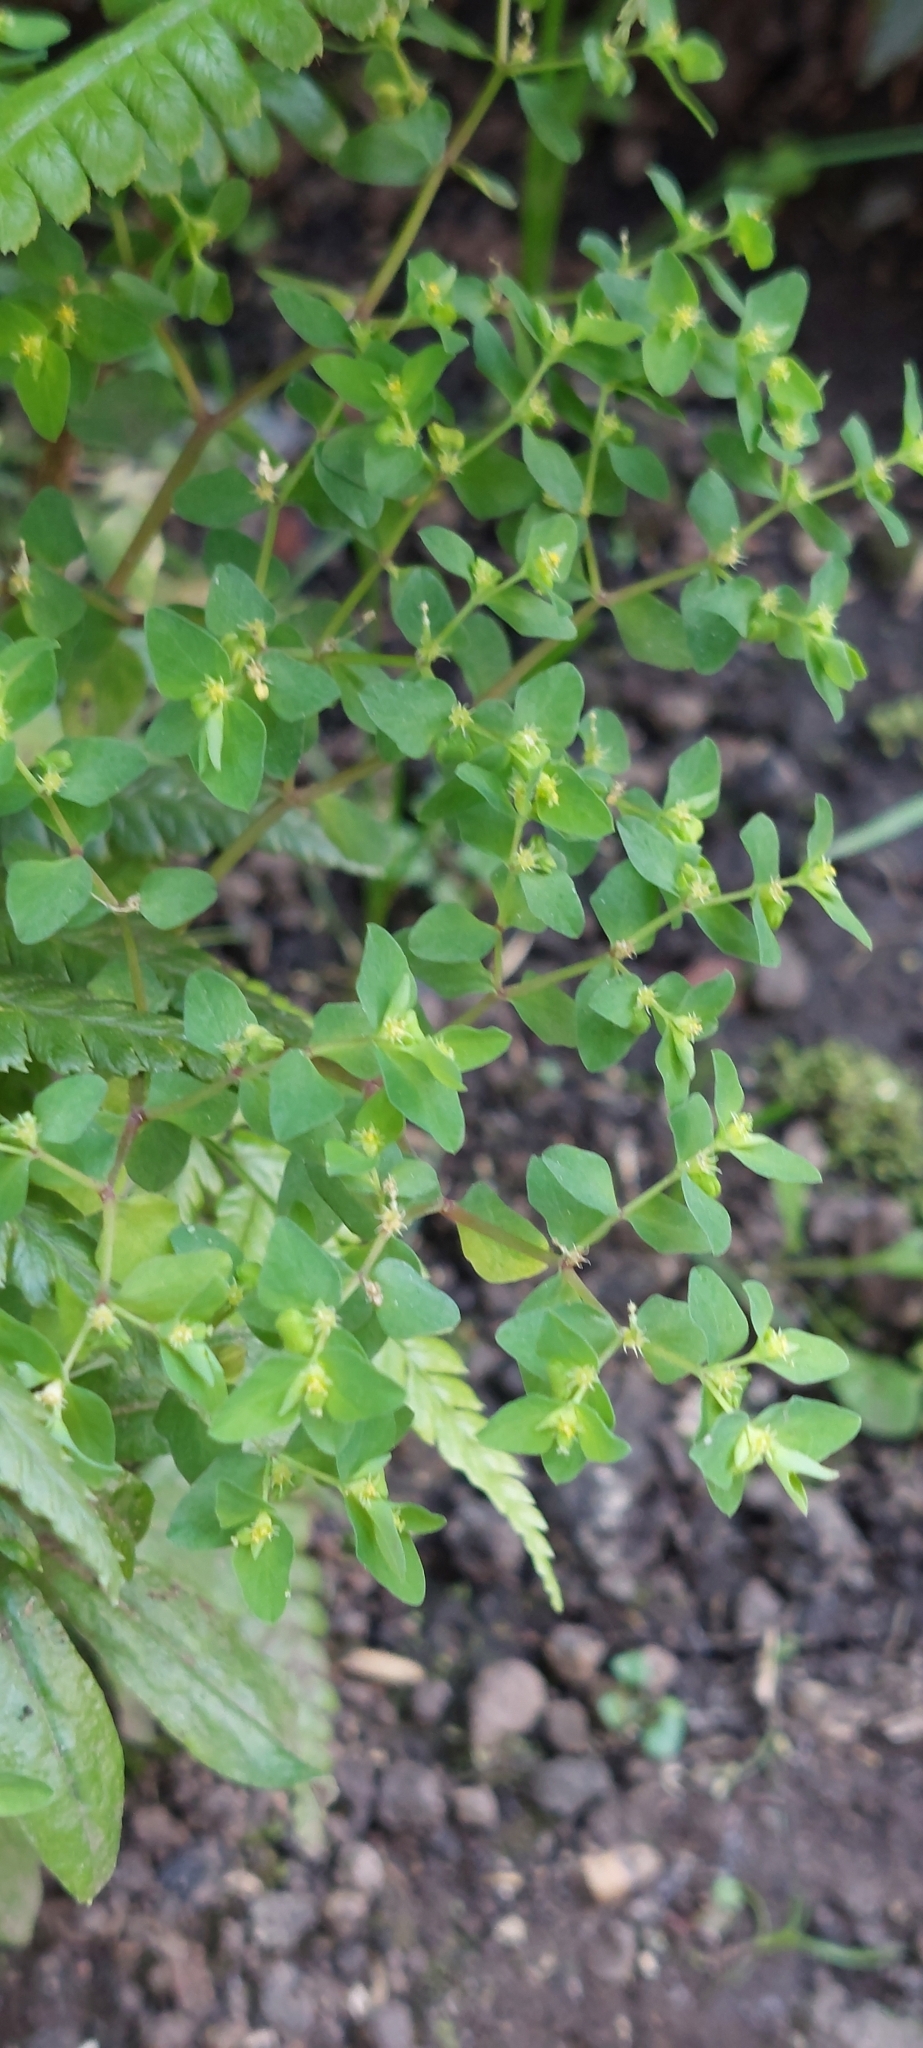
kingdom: Plantae
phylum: Tracheophyta
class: Magnoliopsida
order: Malpighiales
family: Euphorbiaceae
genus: Euphorbia
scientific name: Euphorbia peplus
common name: Petty spurge
